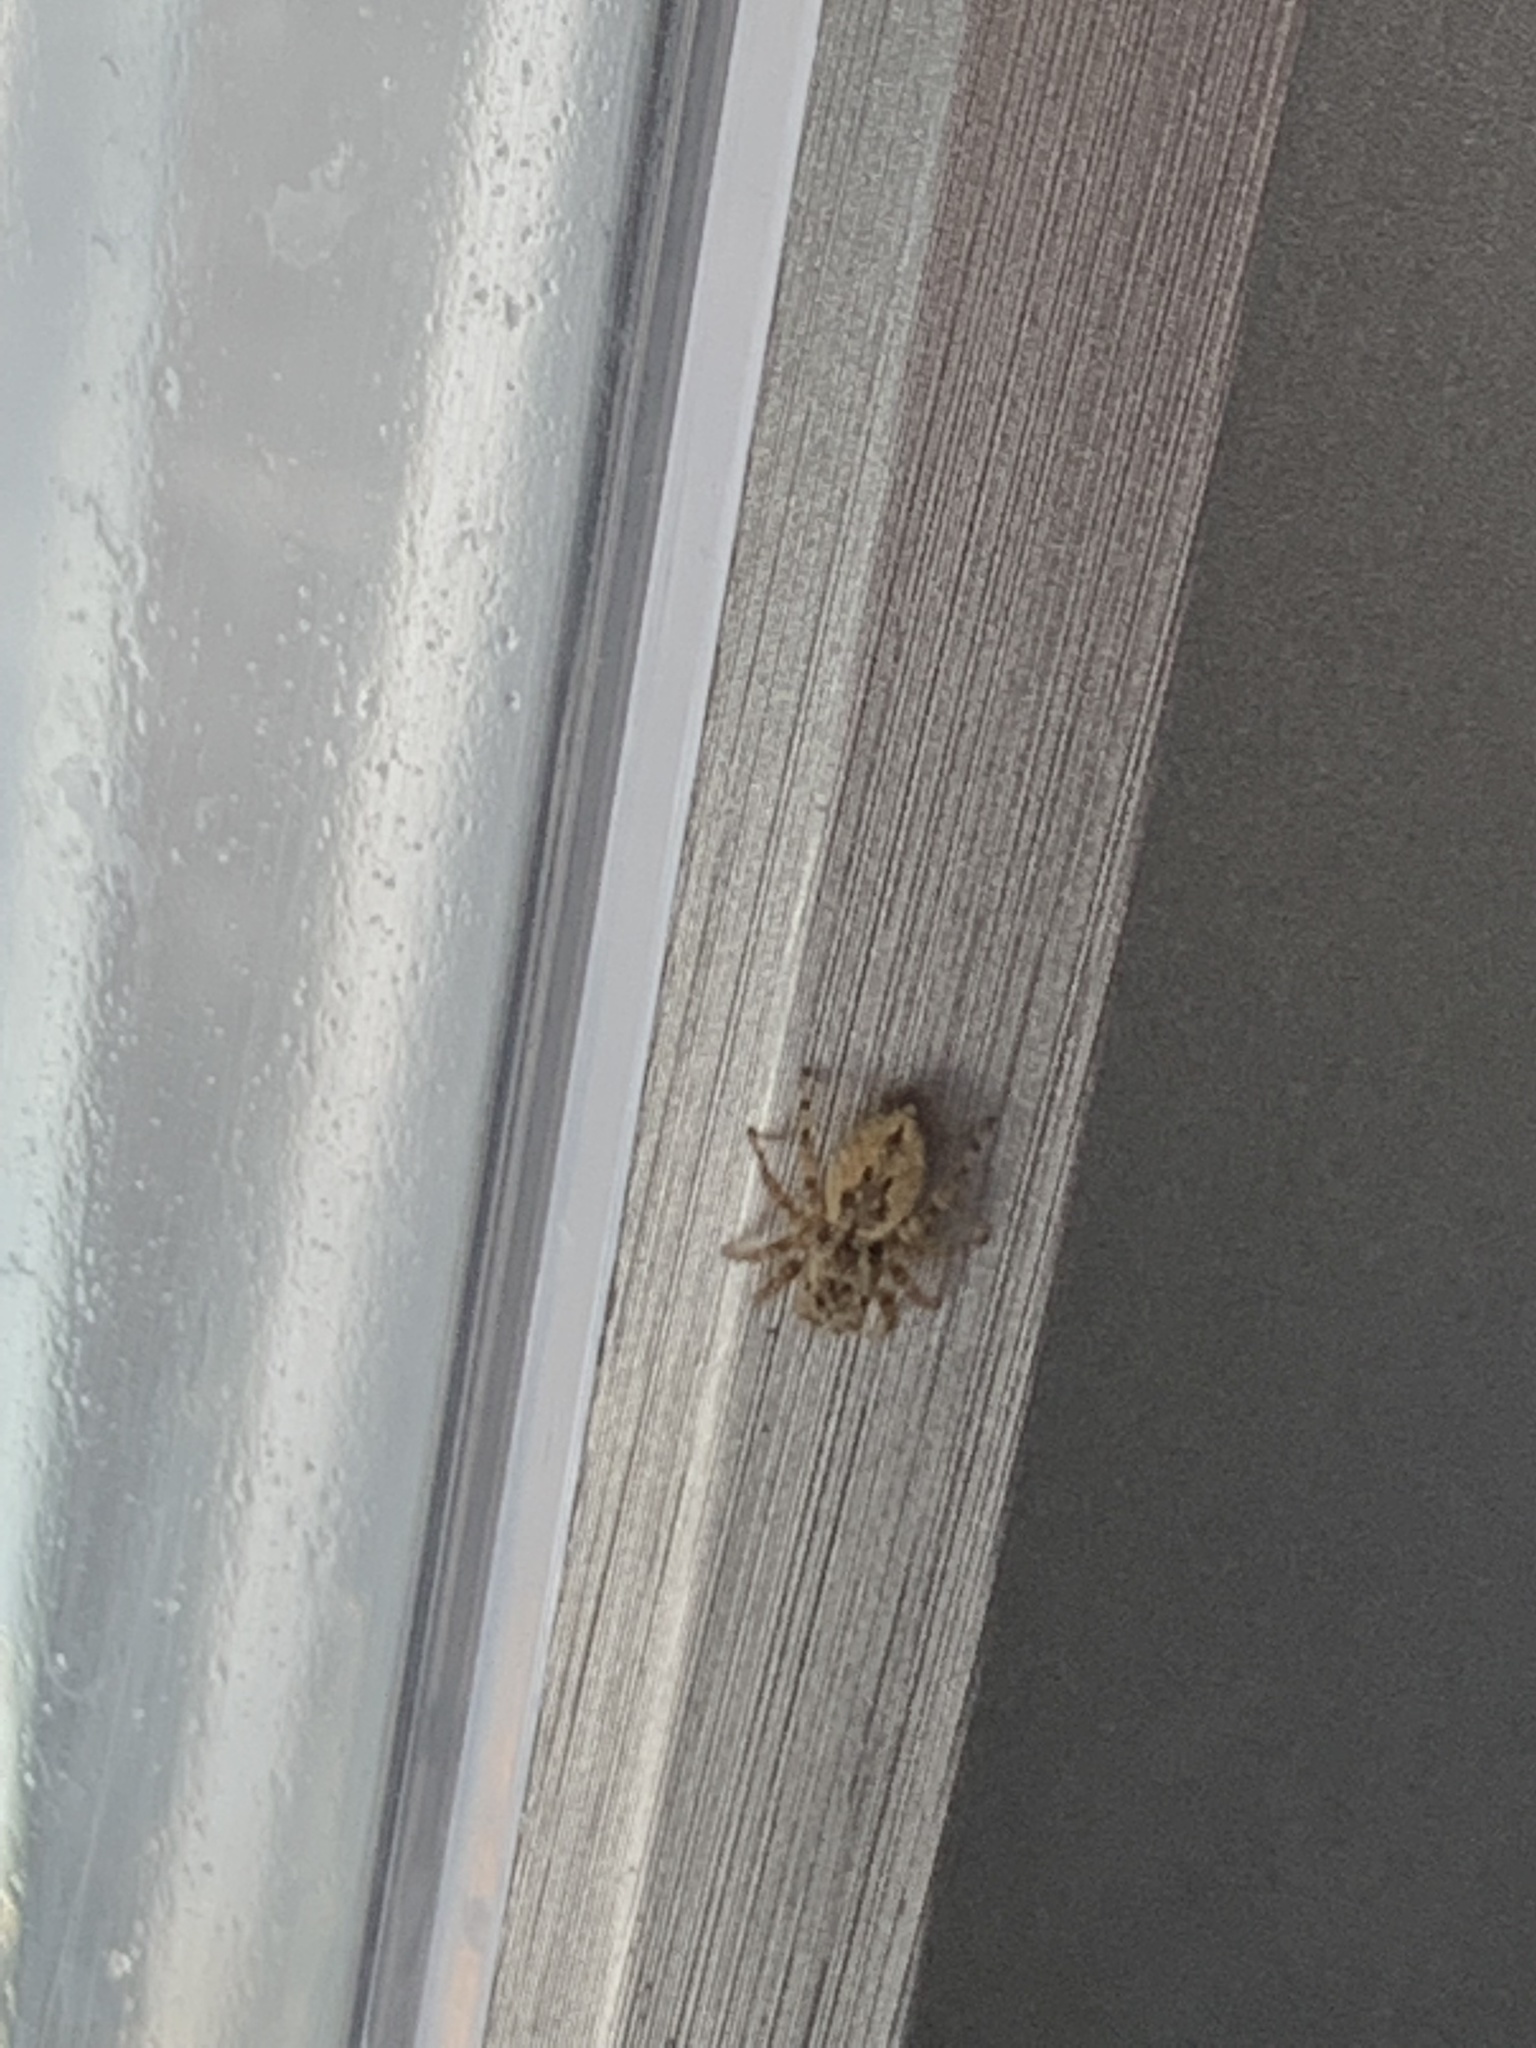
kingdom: Animalia
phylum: Arthropoda
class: Arachnida
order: Araneae
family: Salticidae
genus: Mexigonus
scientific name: Mexigonus minutus
